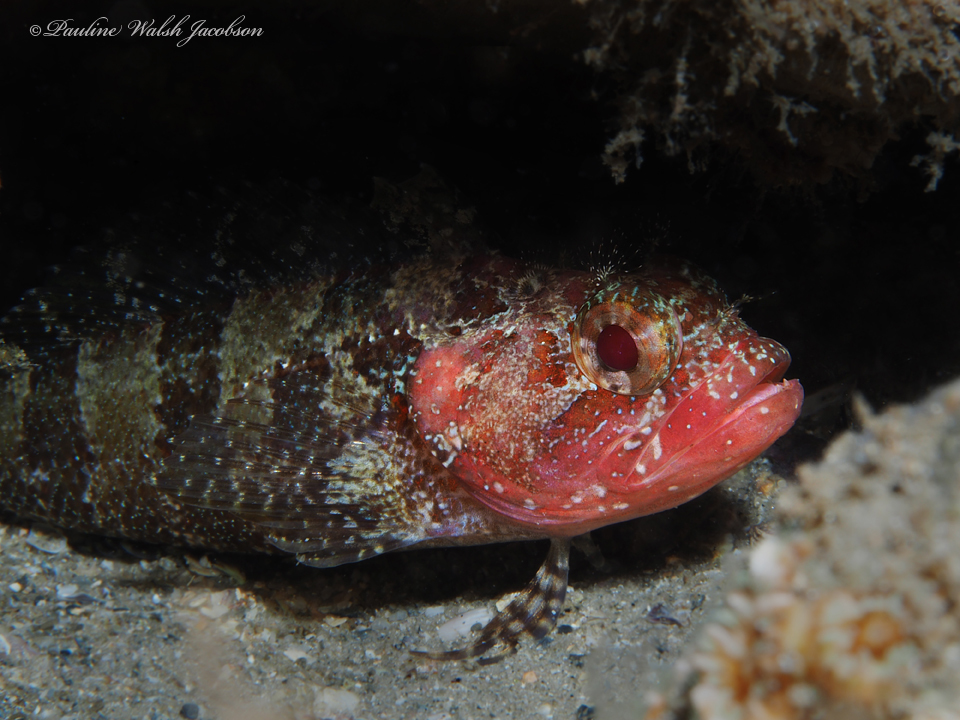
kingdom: Animalia
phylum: Chordata
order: Perciformes
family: Labrisomidae
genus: Gobioclinus
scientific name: Gobioclinus kalisherae
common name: Downy blenny
